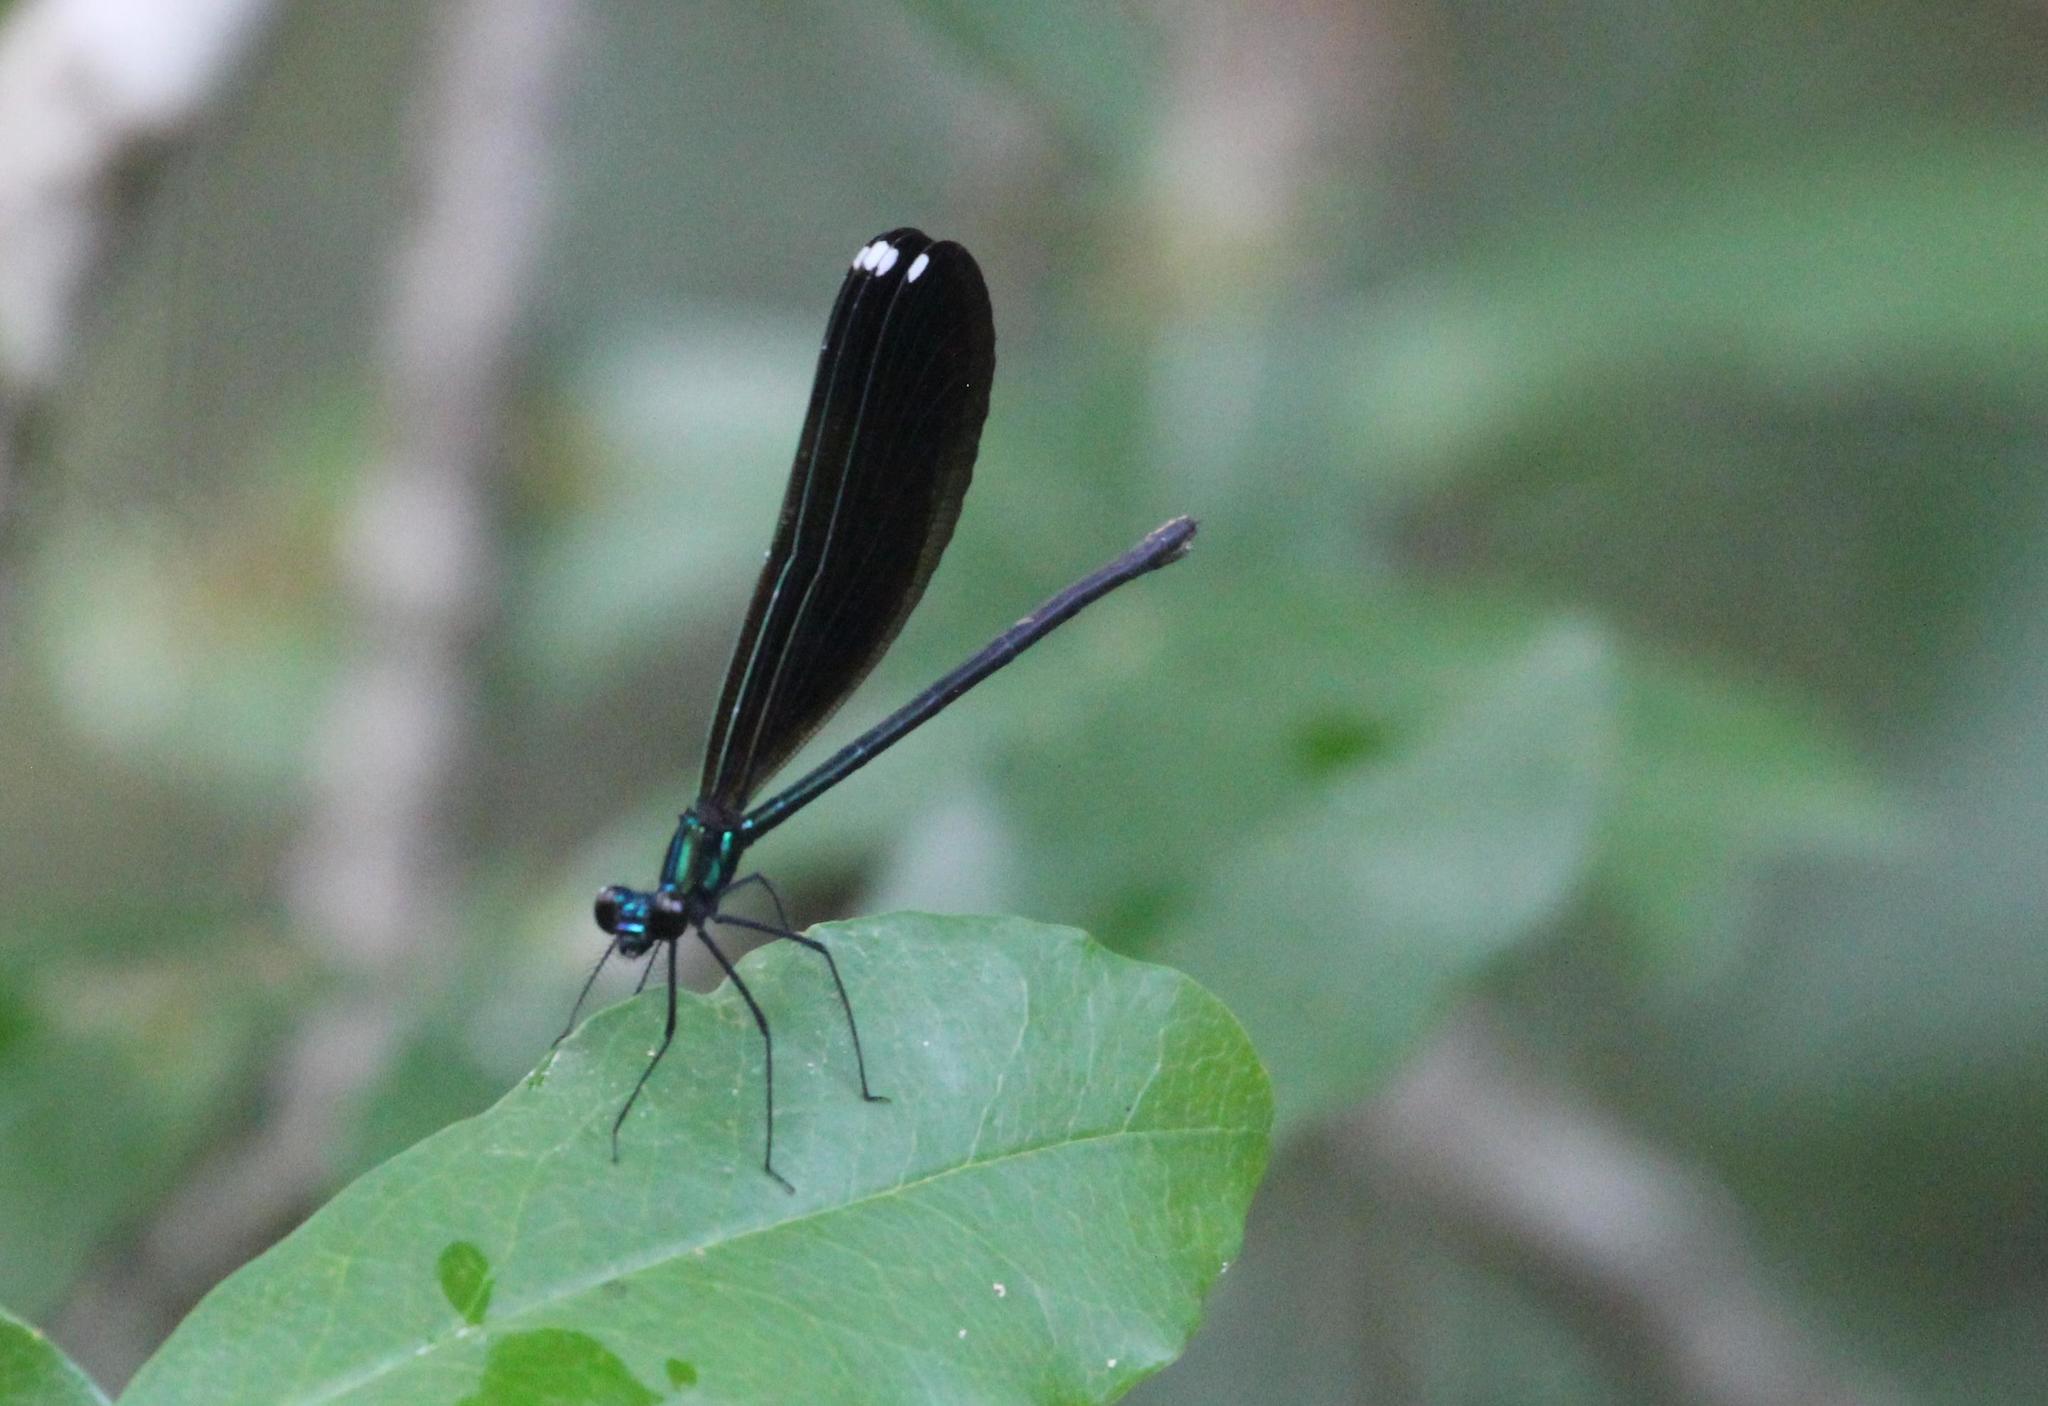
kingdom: Animalia
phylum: Arthropoda
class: Insecta
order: Odonata
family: Calopterygidae
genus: Calopteryx
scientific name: Calopteryx maculata
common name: Ebony jewelwing
